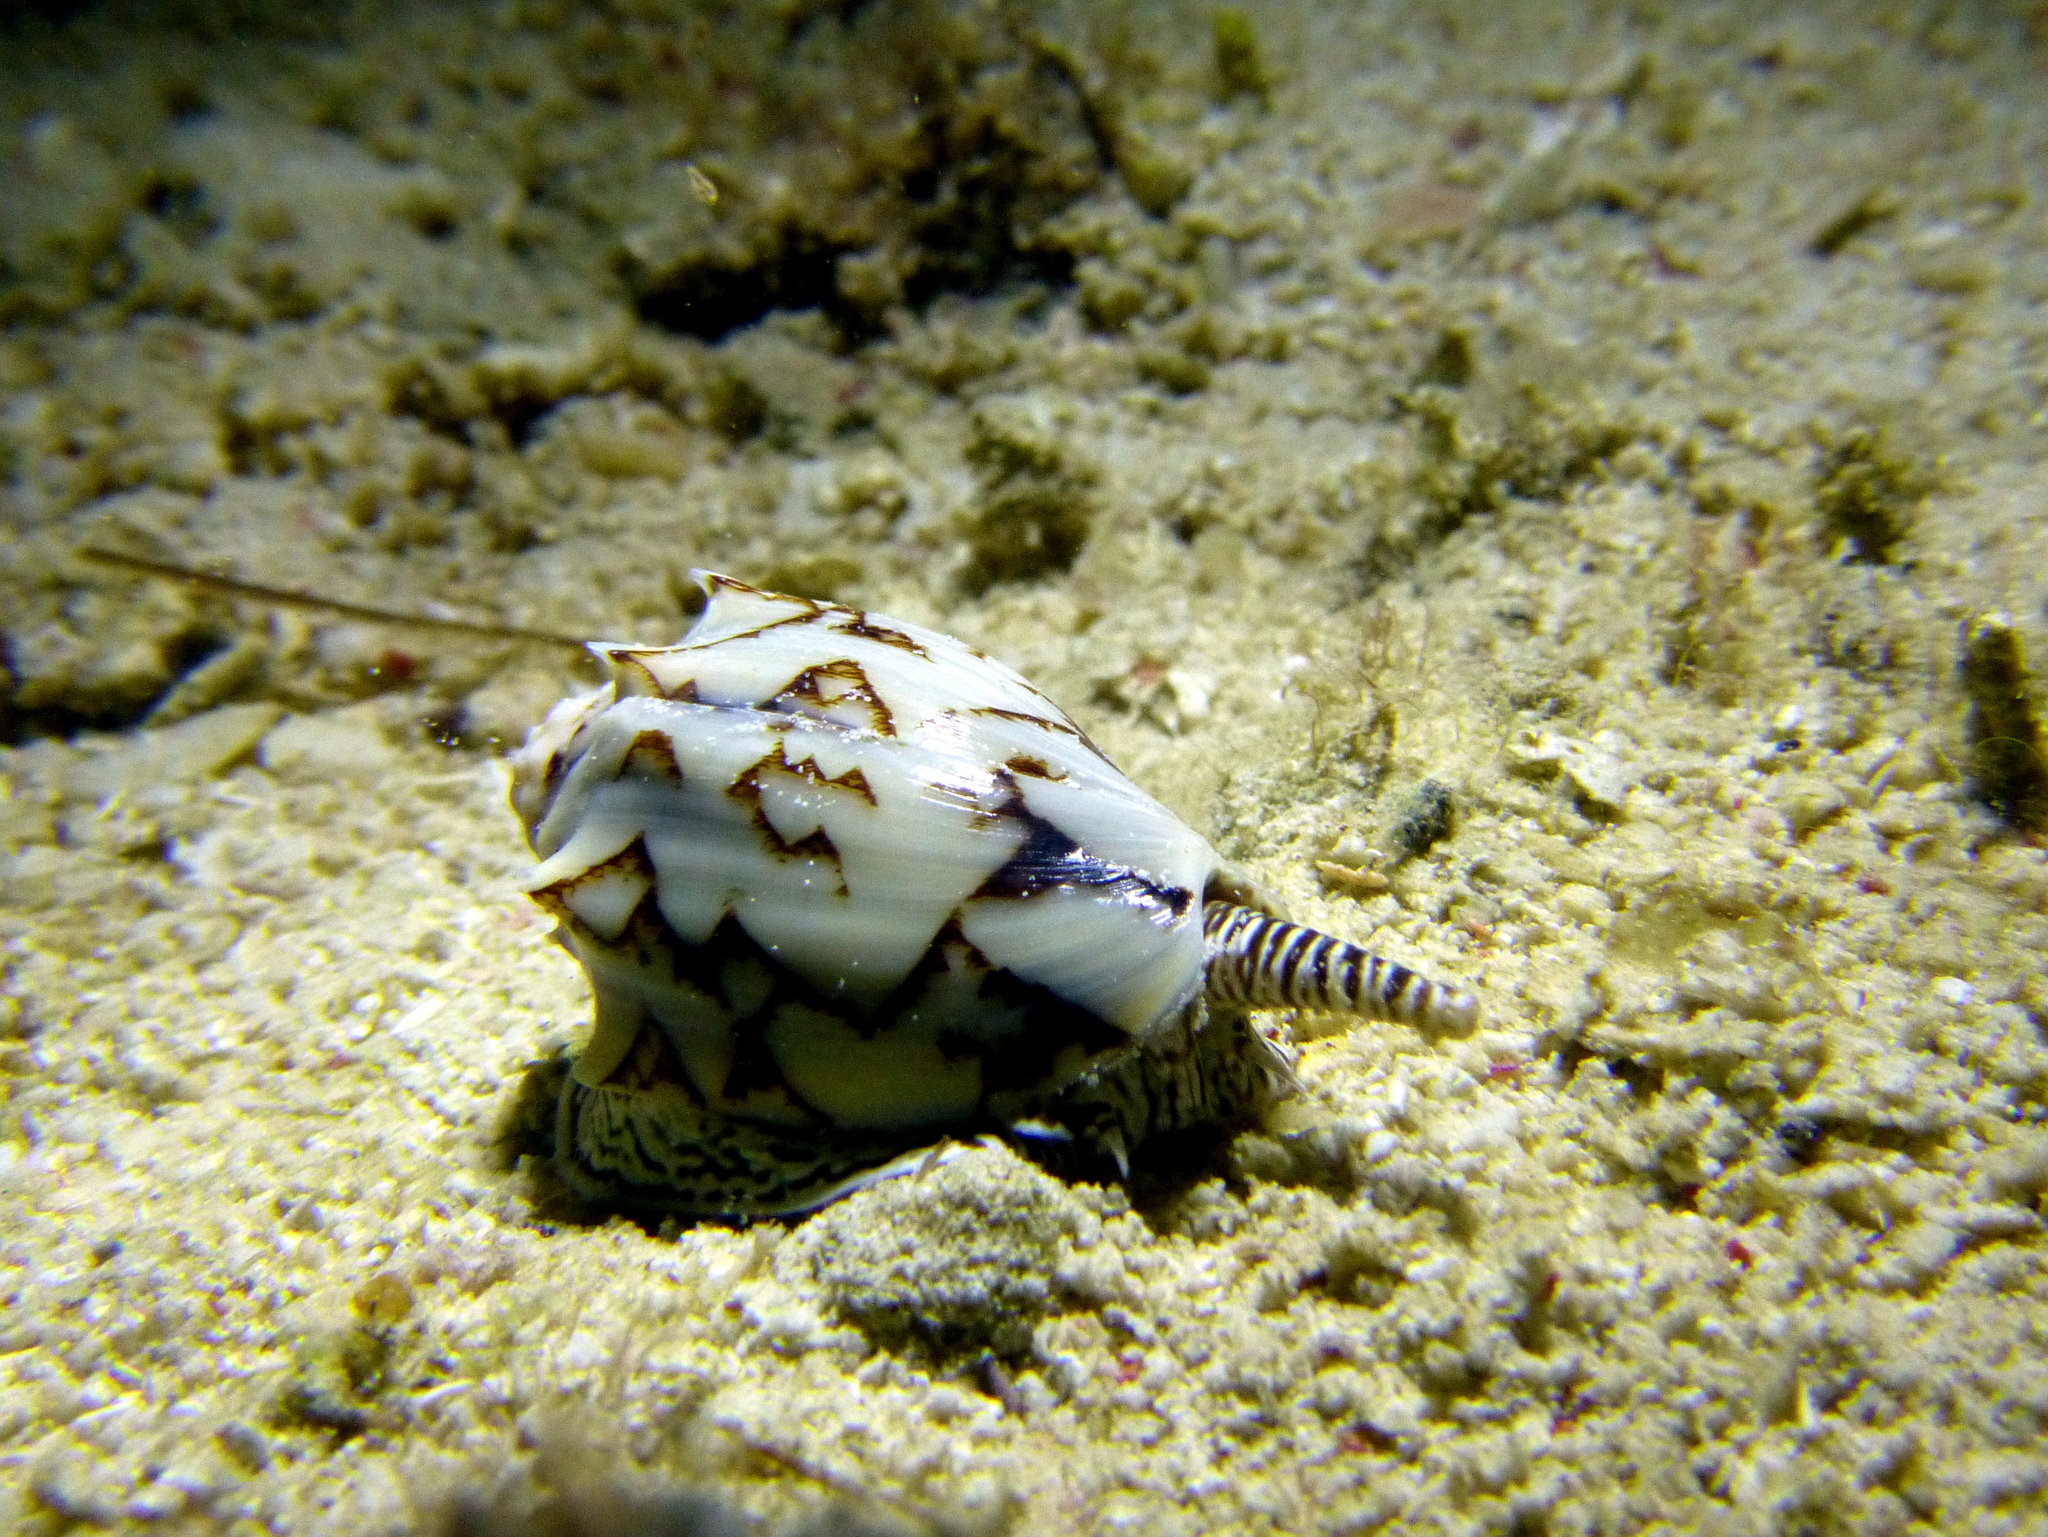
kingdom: Animalia
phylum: Mollusca
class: Gastropoda
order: Neogastropoda
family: Volutidae
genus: Cymbiola
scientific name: Cymbiola vespertilio
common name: Bat volute
